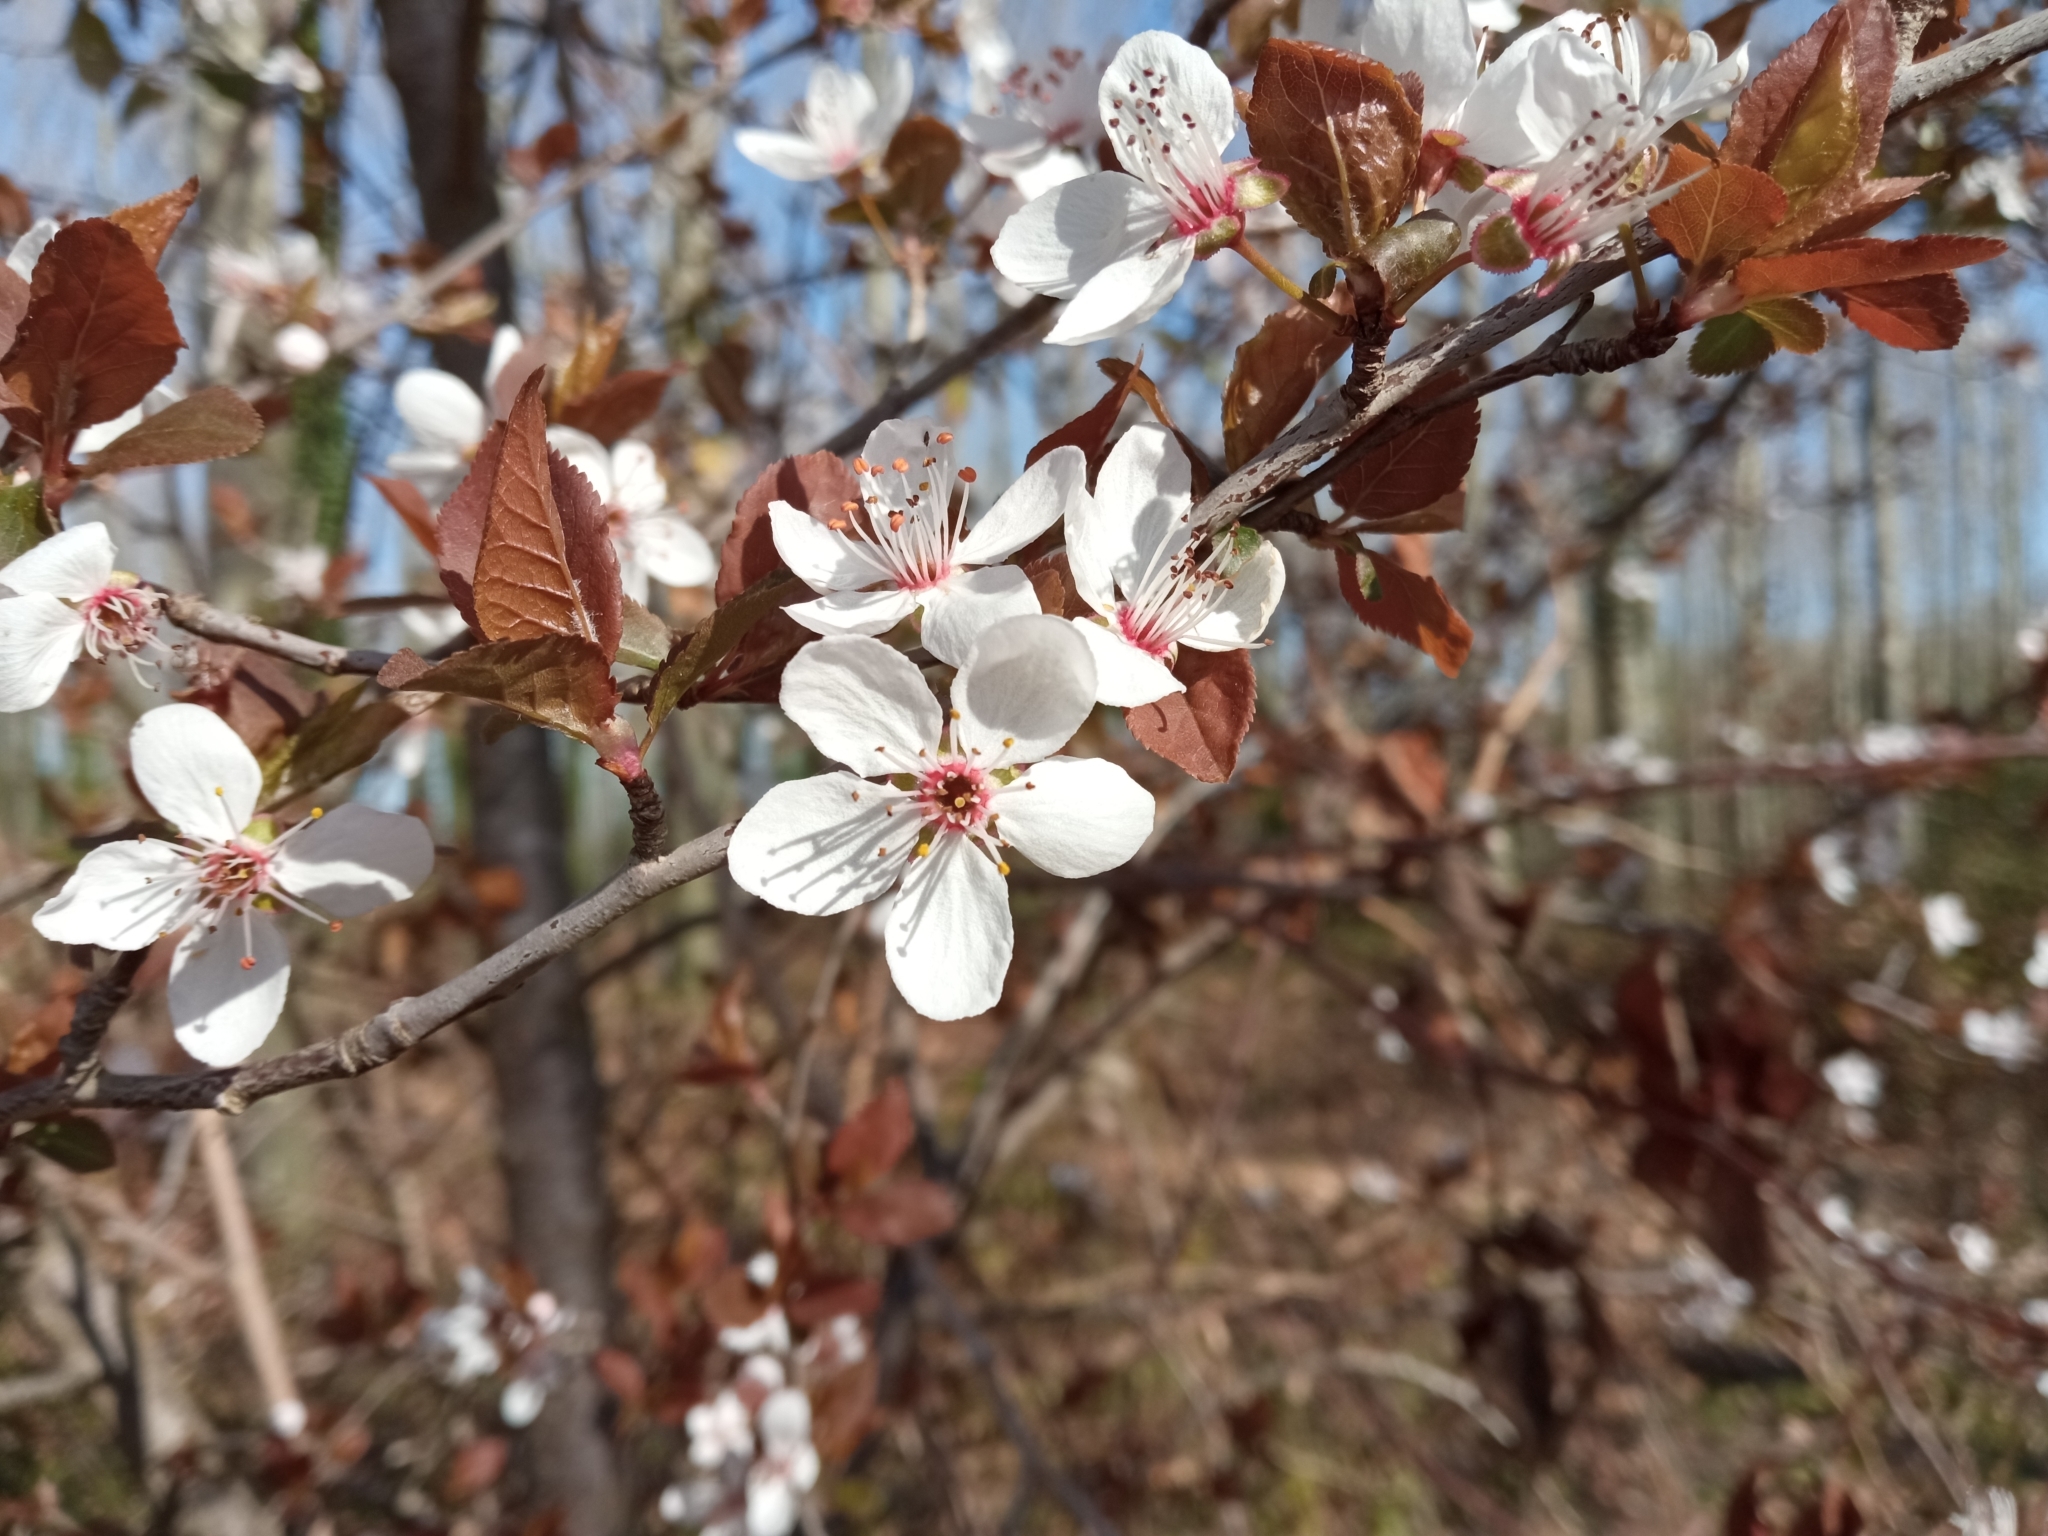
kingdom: Plantae
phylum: Tracheophyta
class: Magnoliopsida
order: Rosales
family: Rosaceae
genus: Prunus
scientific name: Prunus cerasifera
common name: Cherry plum
